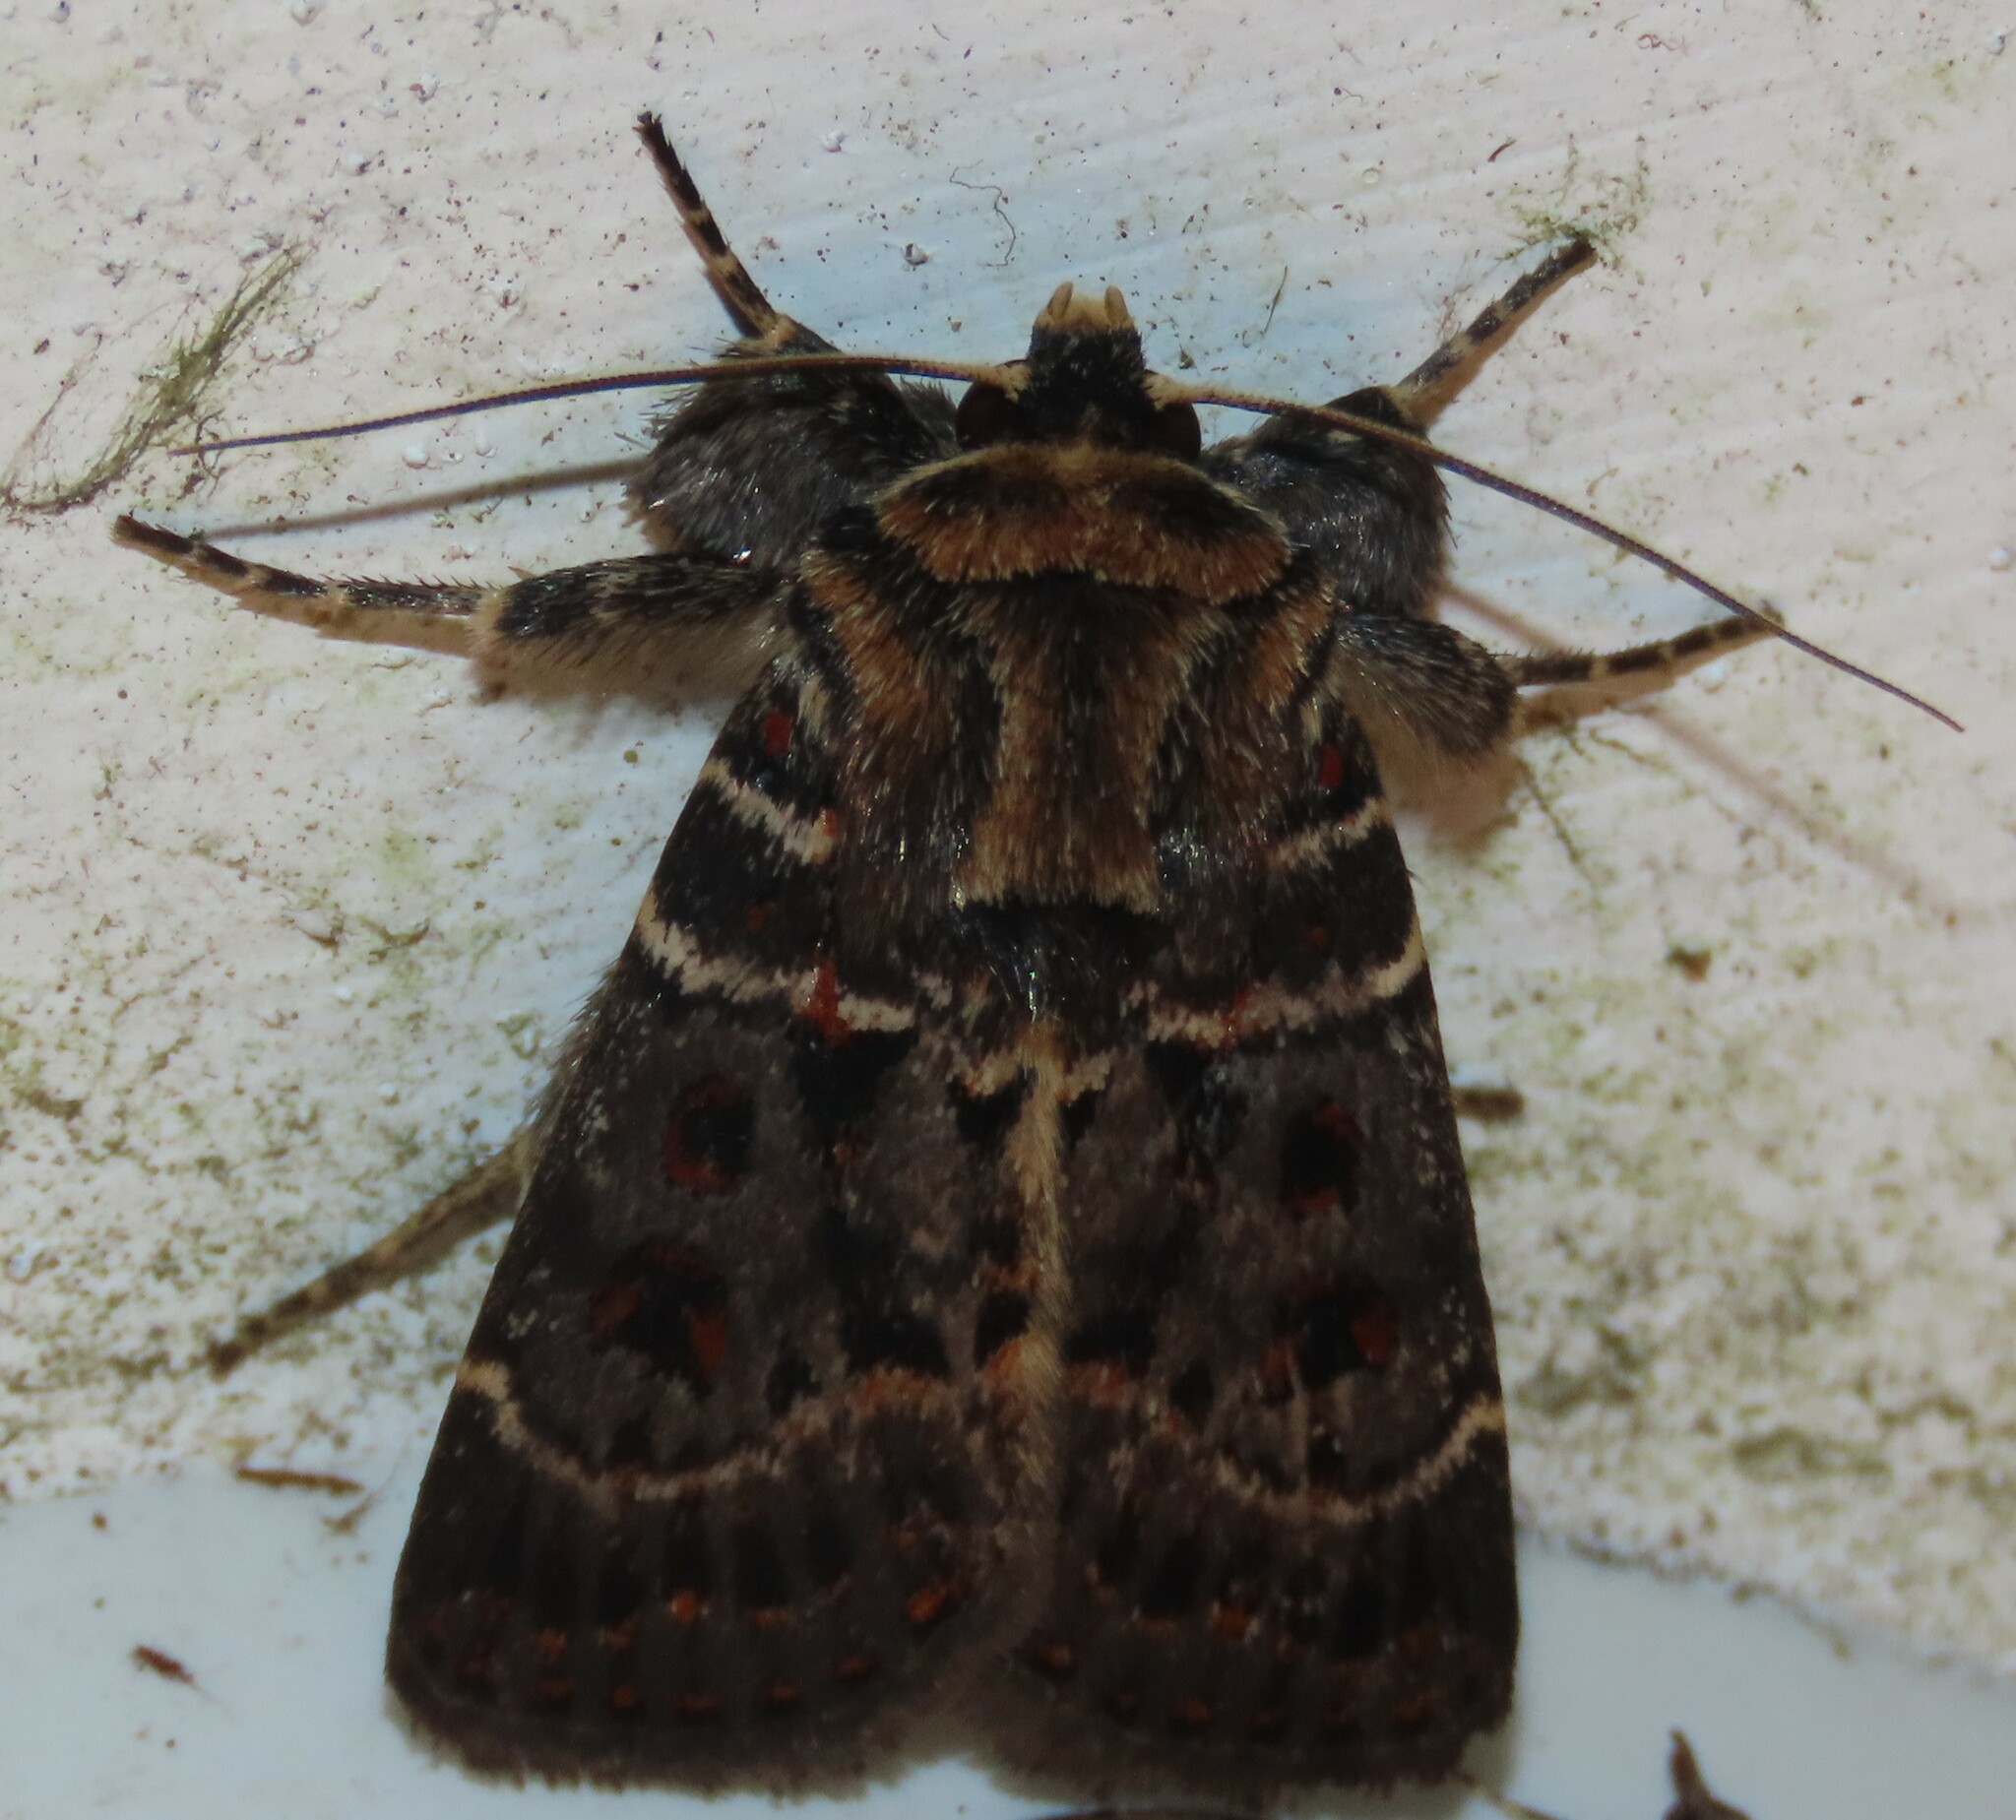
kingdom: Animalia
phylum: Arthropoda
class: Insecta
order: Lepidoptera
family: Noctuidae
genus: Proteuxoa
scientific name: Proteuxoa sanguinipuncta
